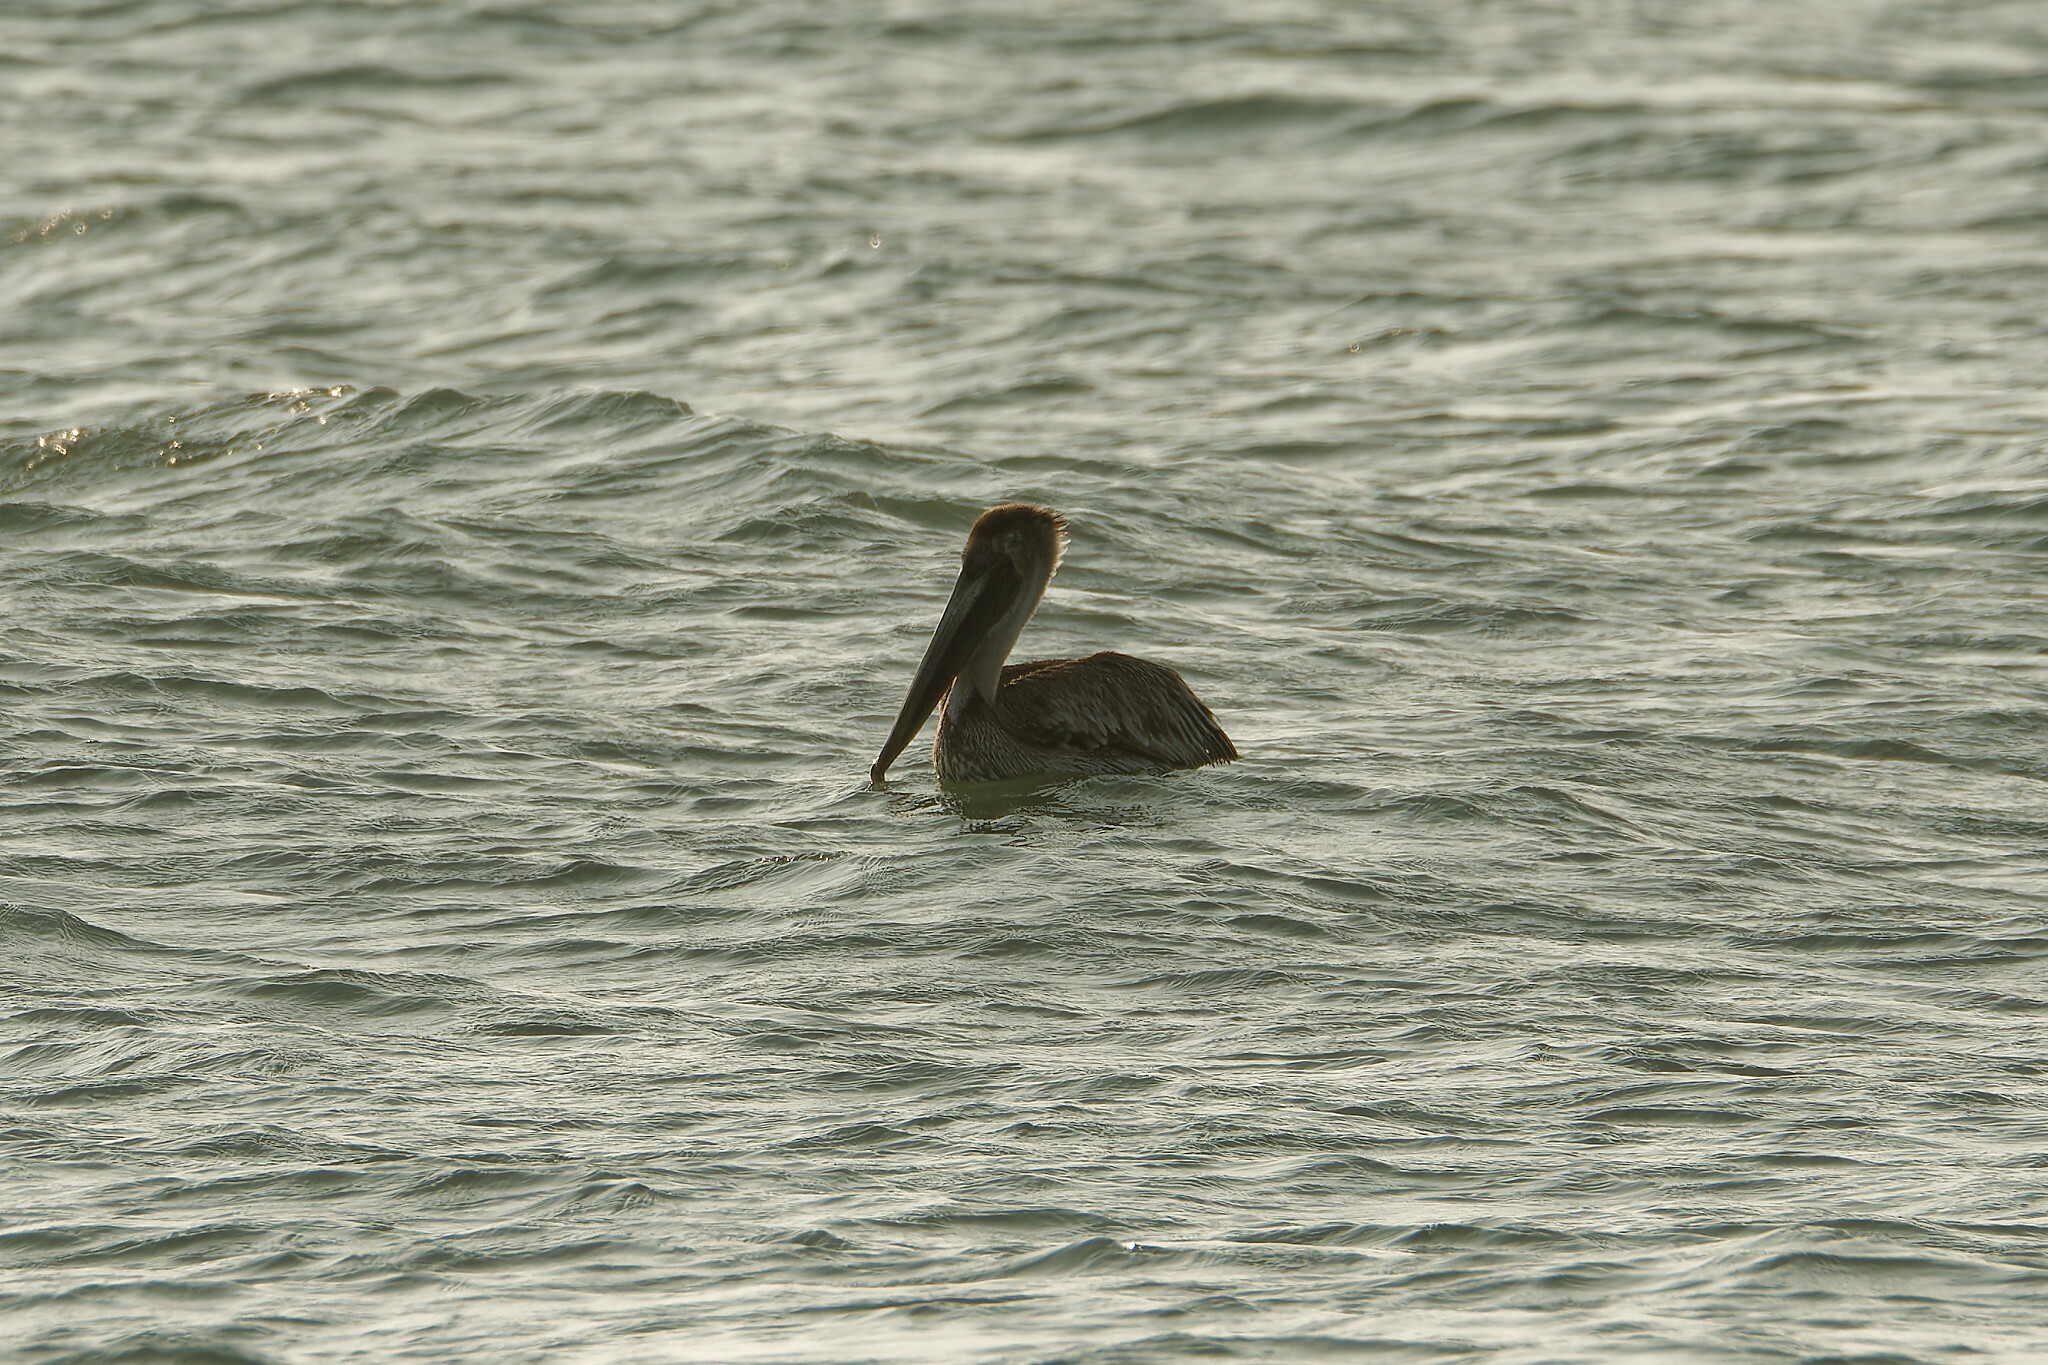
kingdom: Animalia
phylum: Chordata
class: Aves
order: Pelecaniformes
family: Pelecanidae
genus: Pelecanus
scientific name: Pelecanus occidentalis
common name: Brown pelican
